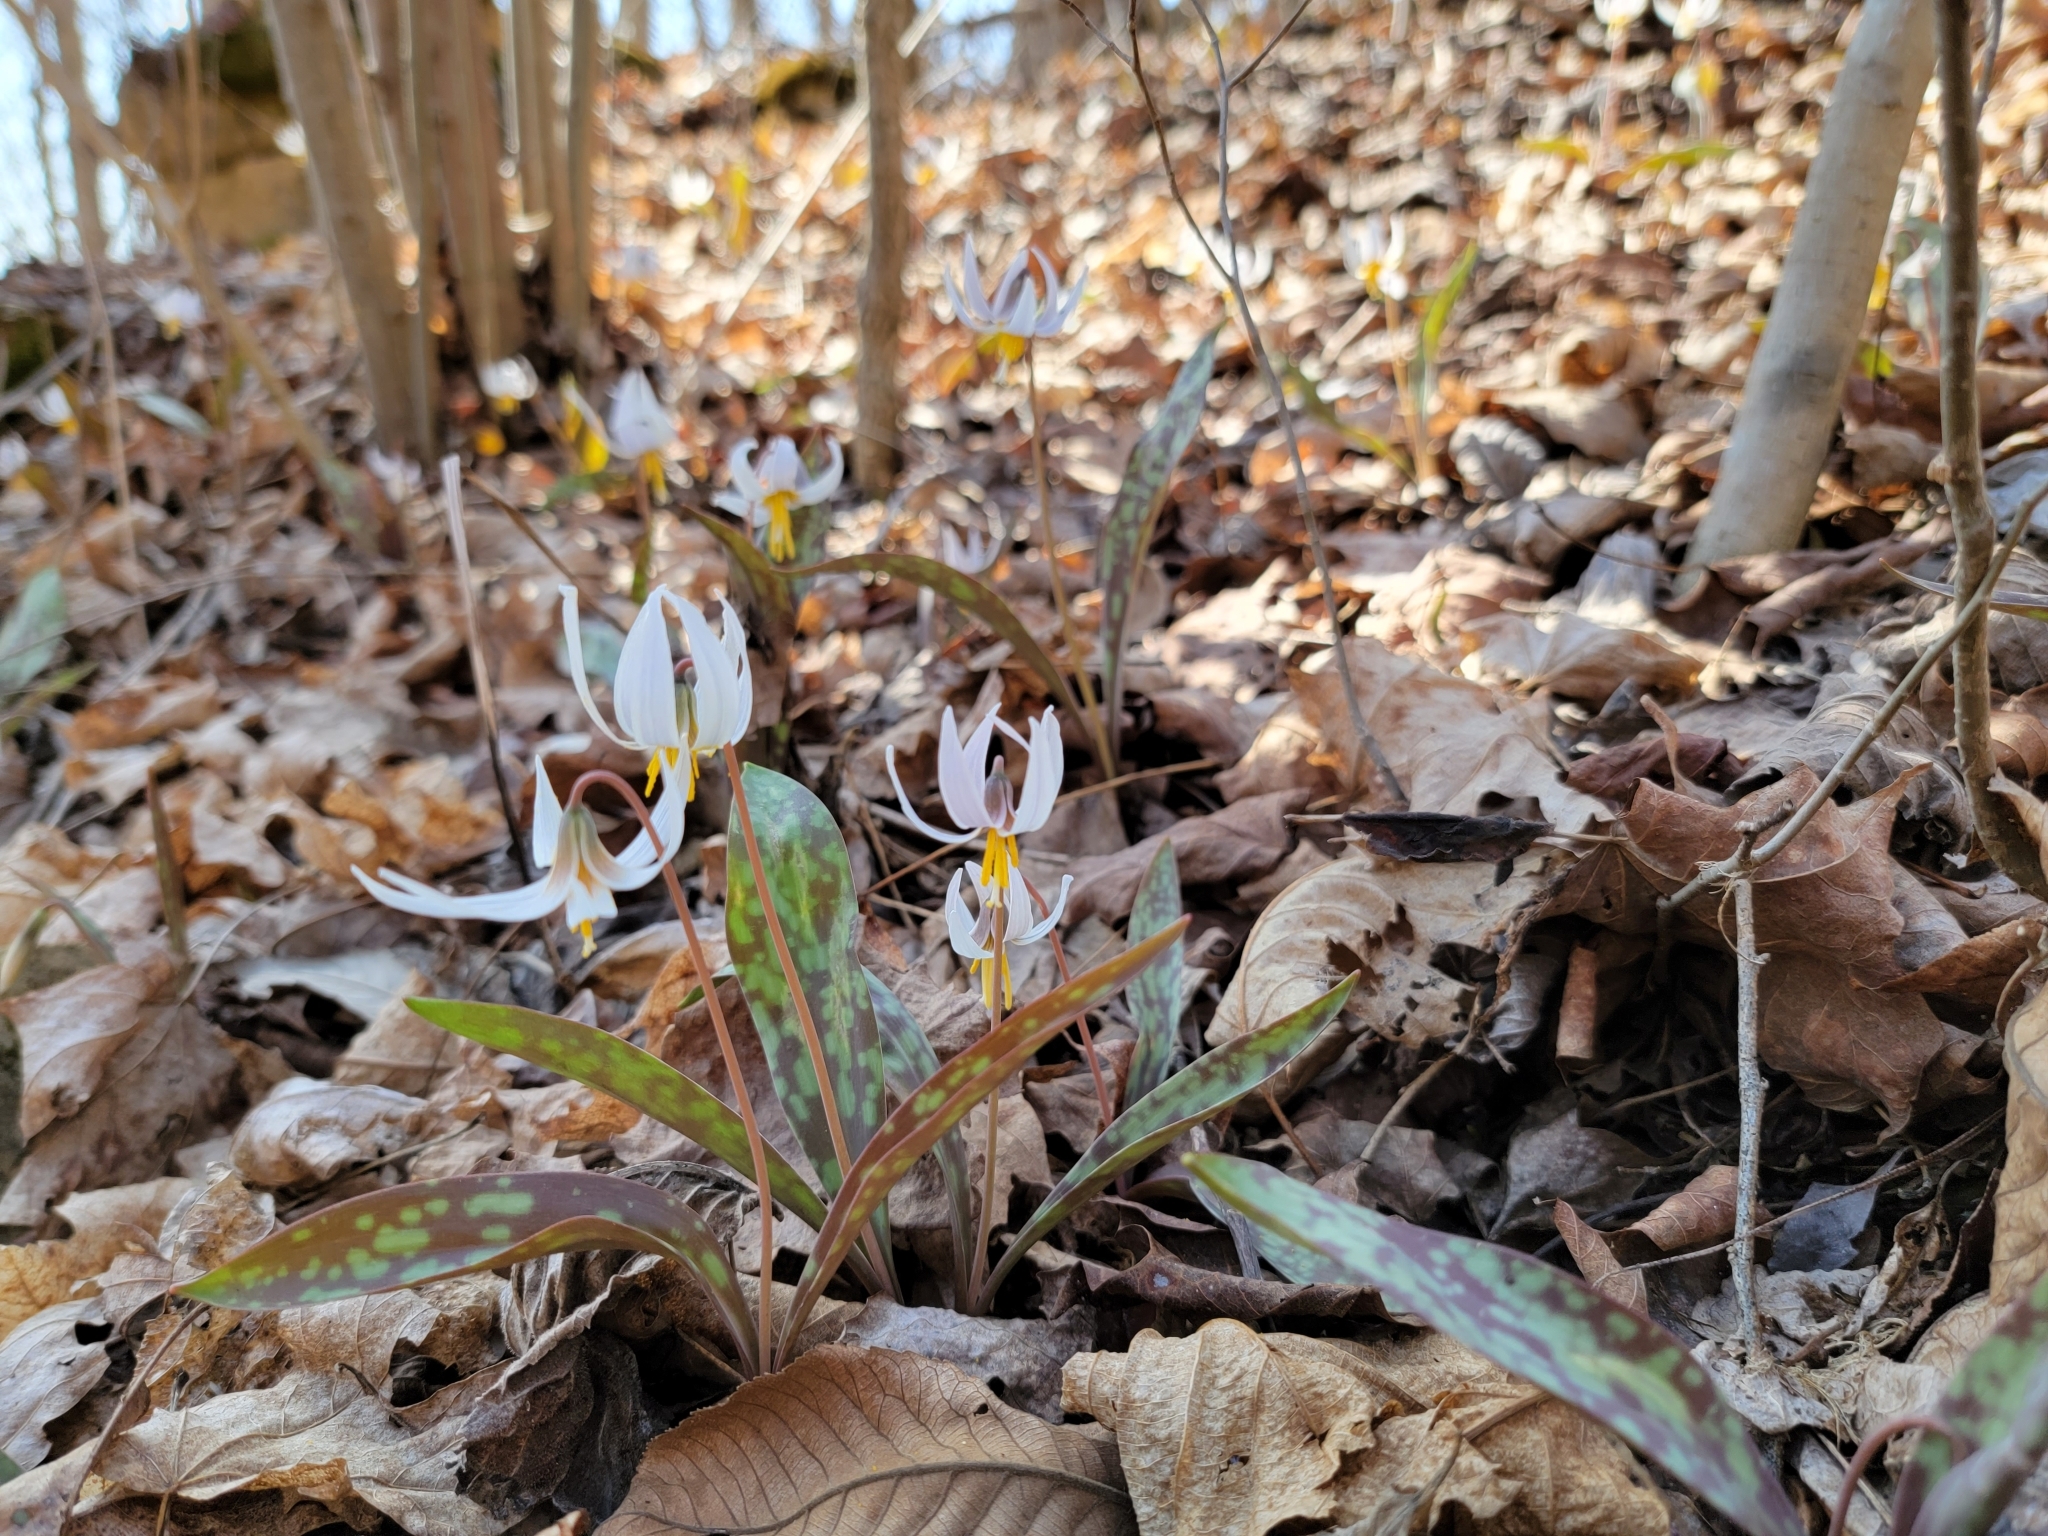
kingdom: Plantae
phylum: Tracheophyta
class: Liliopsida
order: Liliales
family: Liliaceae
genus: Erythronium
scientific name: Erythronium albidum
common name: White trout-lily
